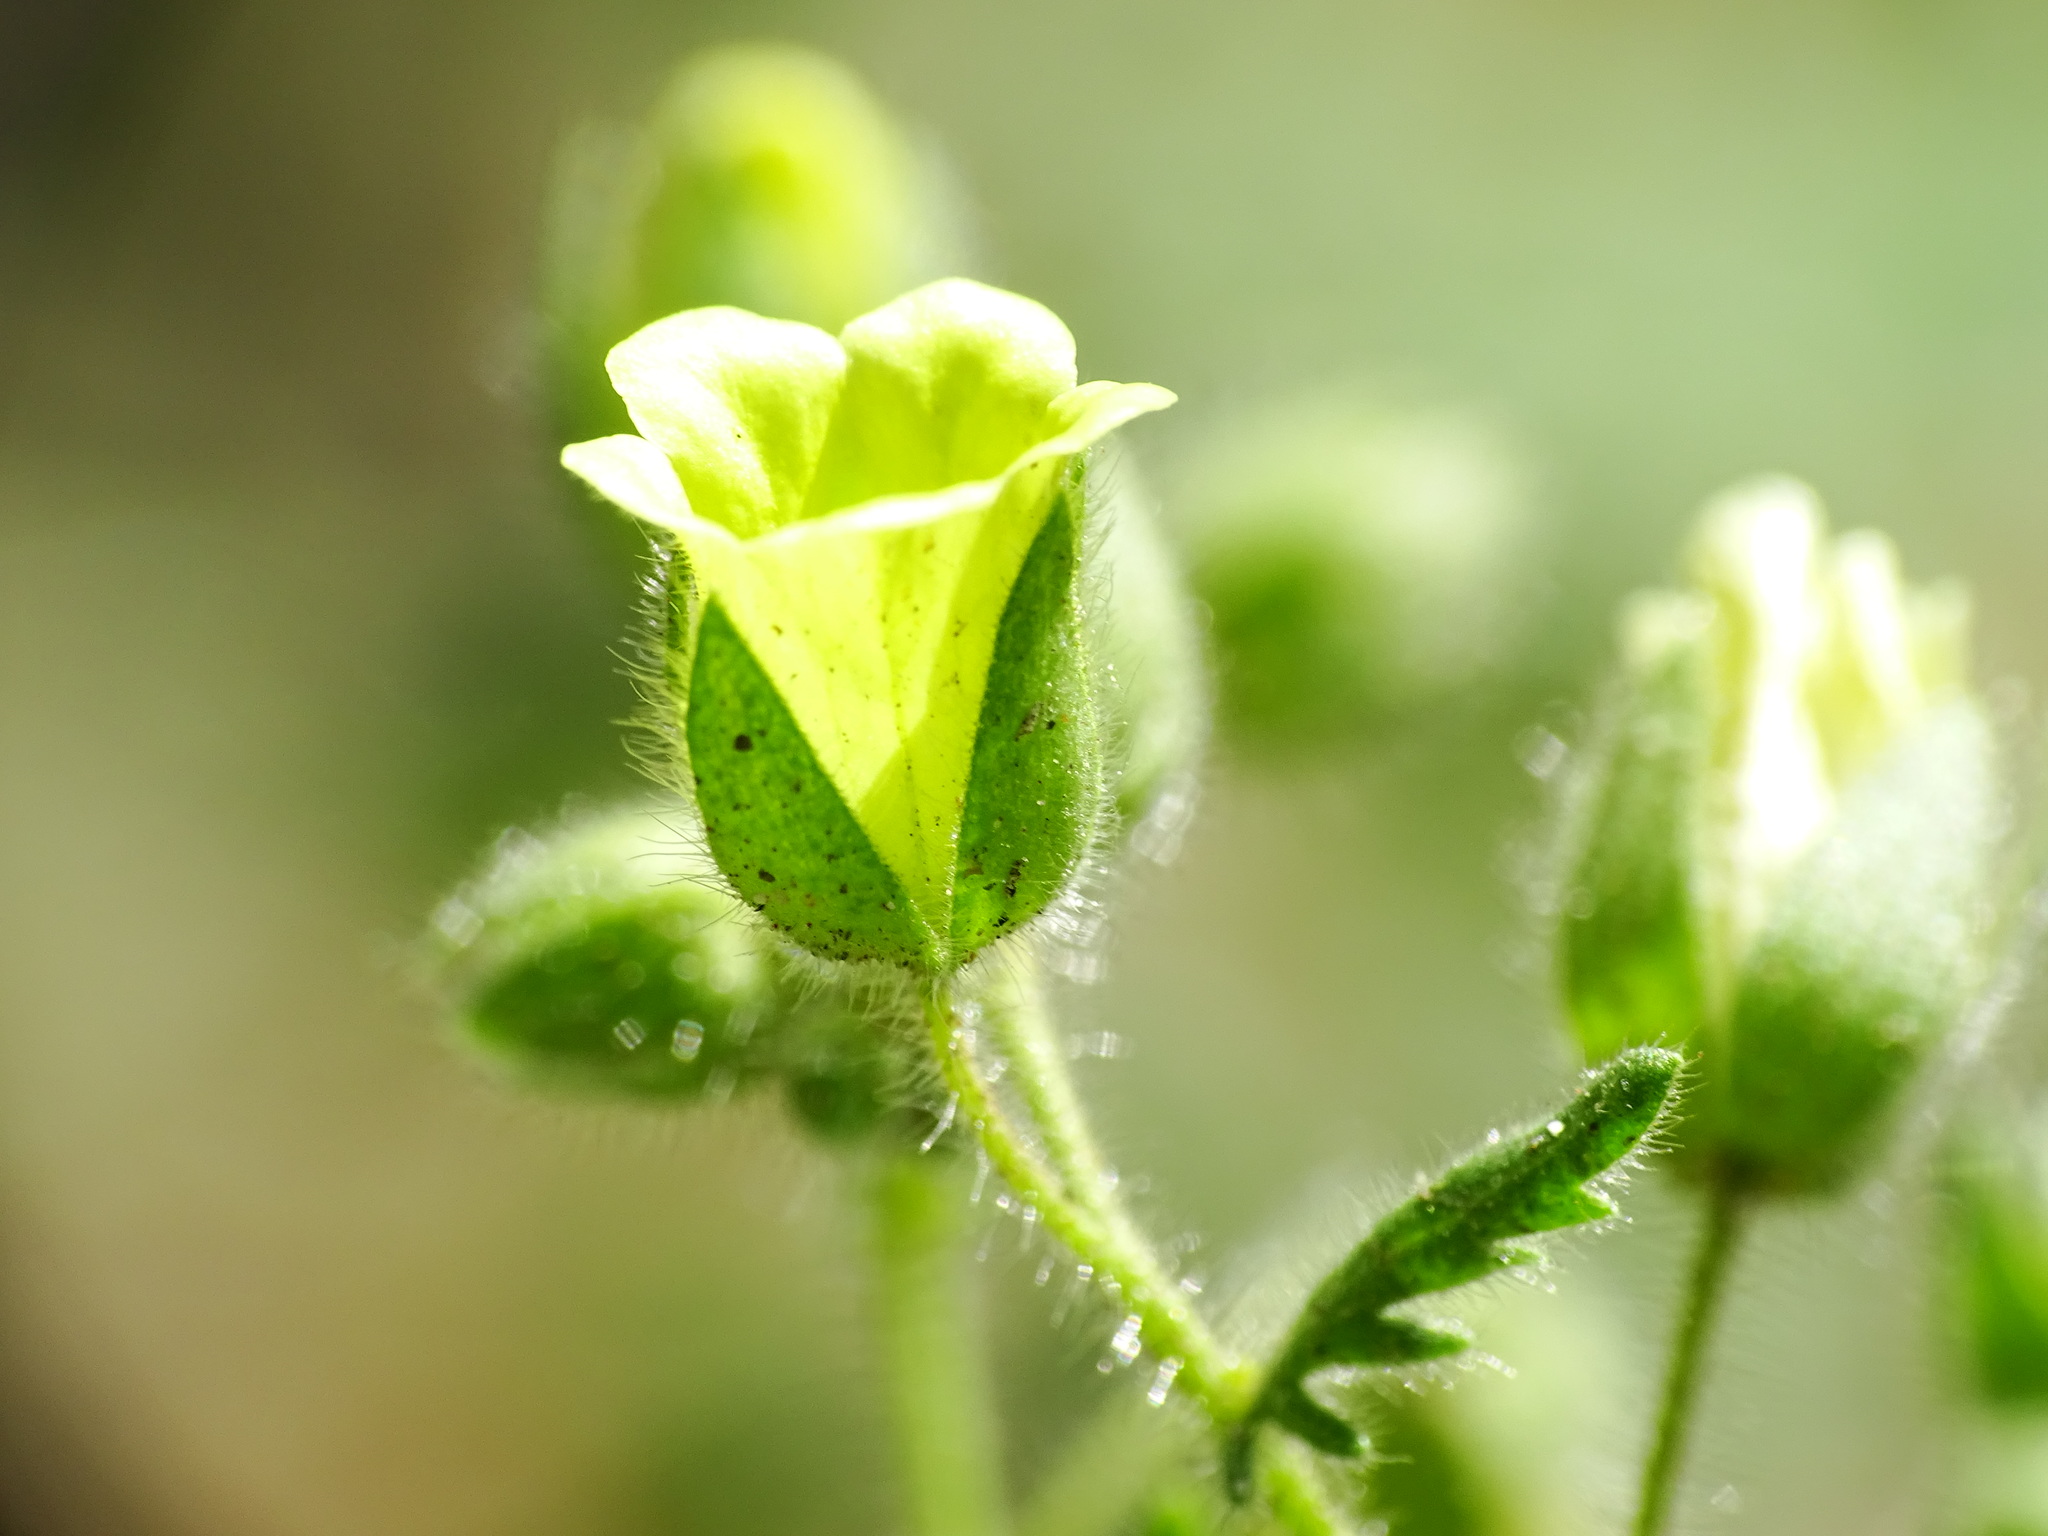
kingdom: Plantae
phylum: Tracheophyta
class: Magnoliopsida
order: Boraginales
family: Hydrophyllaceae
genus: Emmenanthe
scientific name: Emmenanthe penduliflora
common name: Whispering-bells
